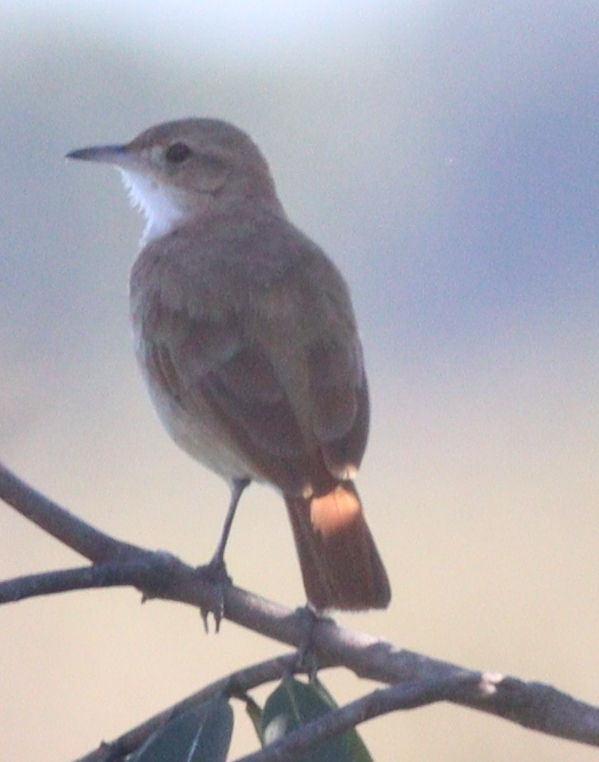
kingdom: Animalia
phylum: Chordata
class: Aves
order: Passeriformes
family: Furnariidae
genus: Furnarius
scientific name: Furnarius rufus
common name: Rufous hornero
